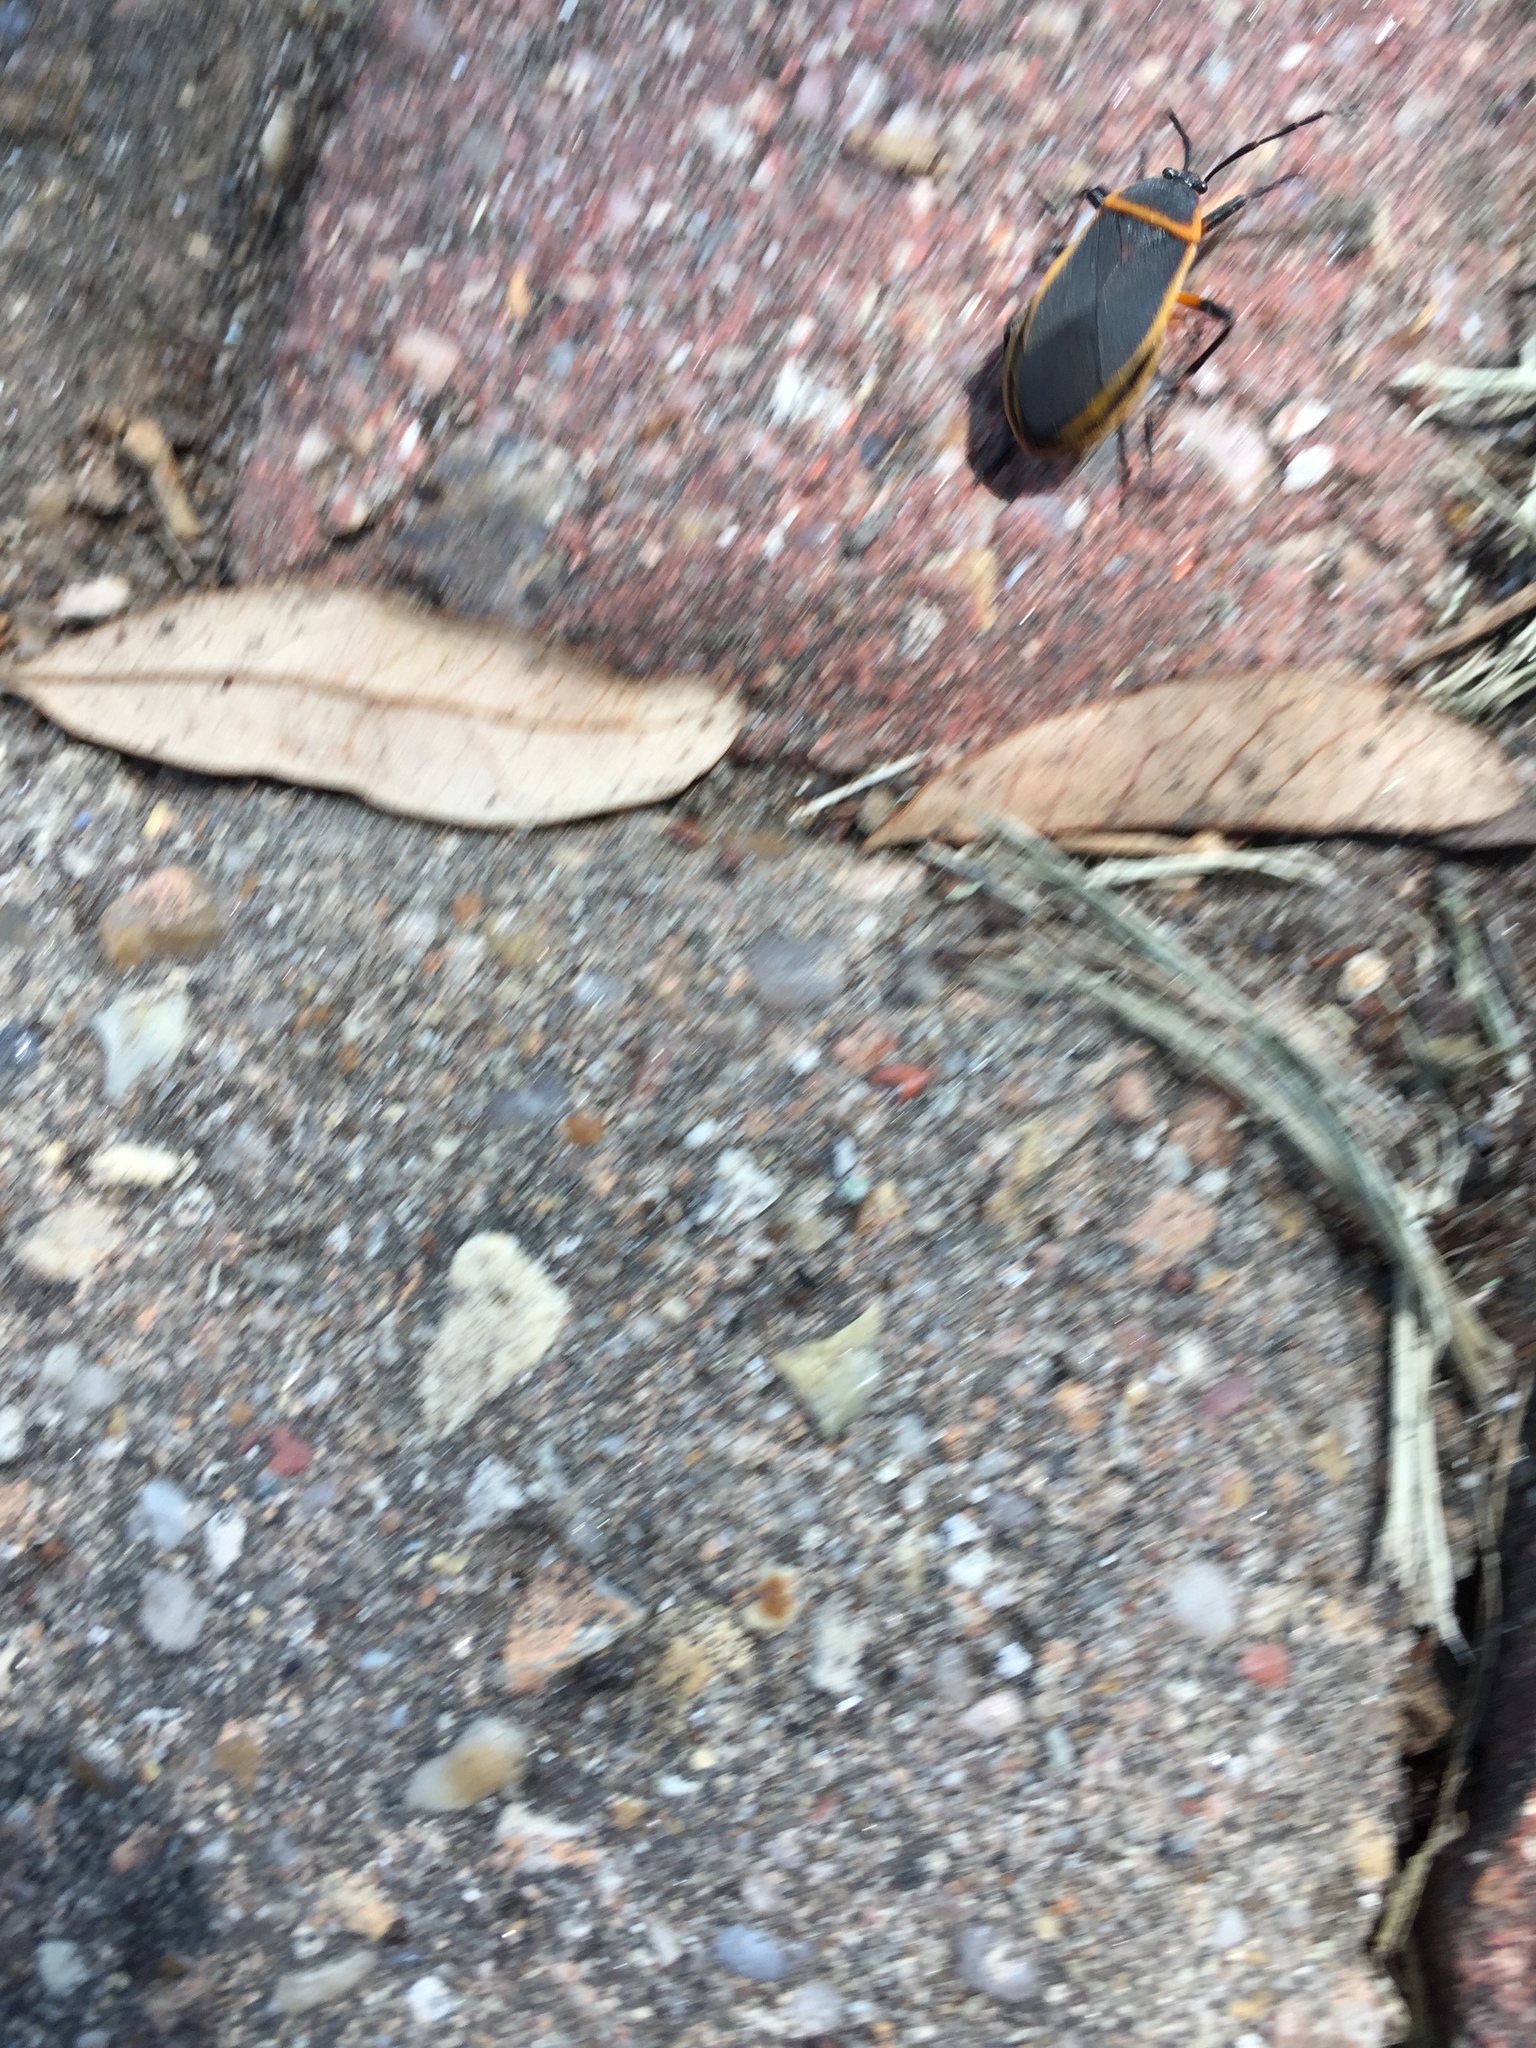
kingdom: Animalia
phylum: Arthropoda
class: Insecta
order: Hemiptera
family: Largidae
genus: Largus
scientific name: Largus succinctus
